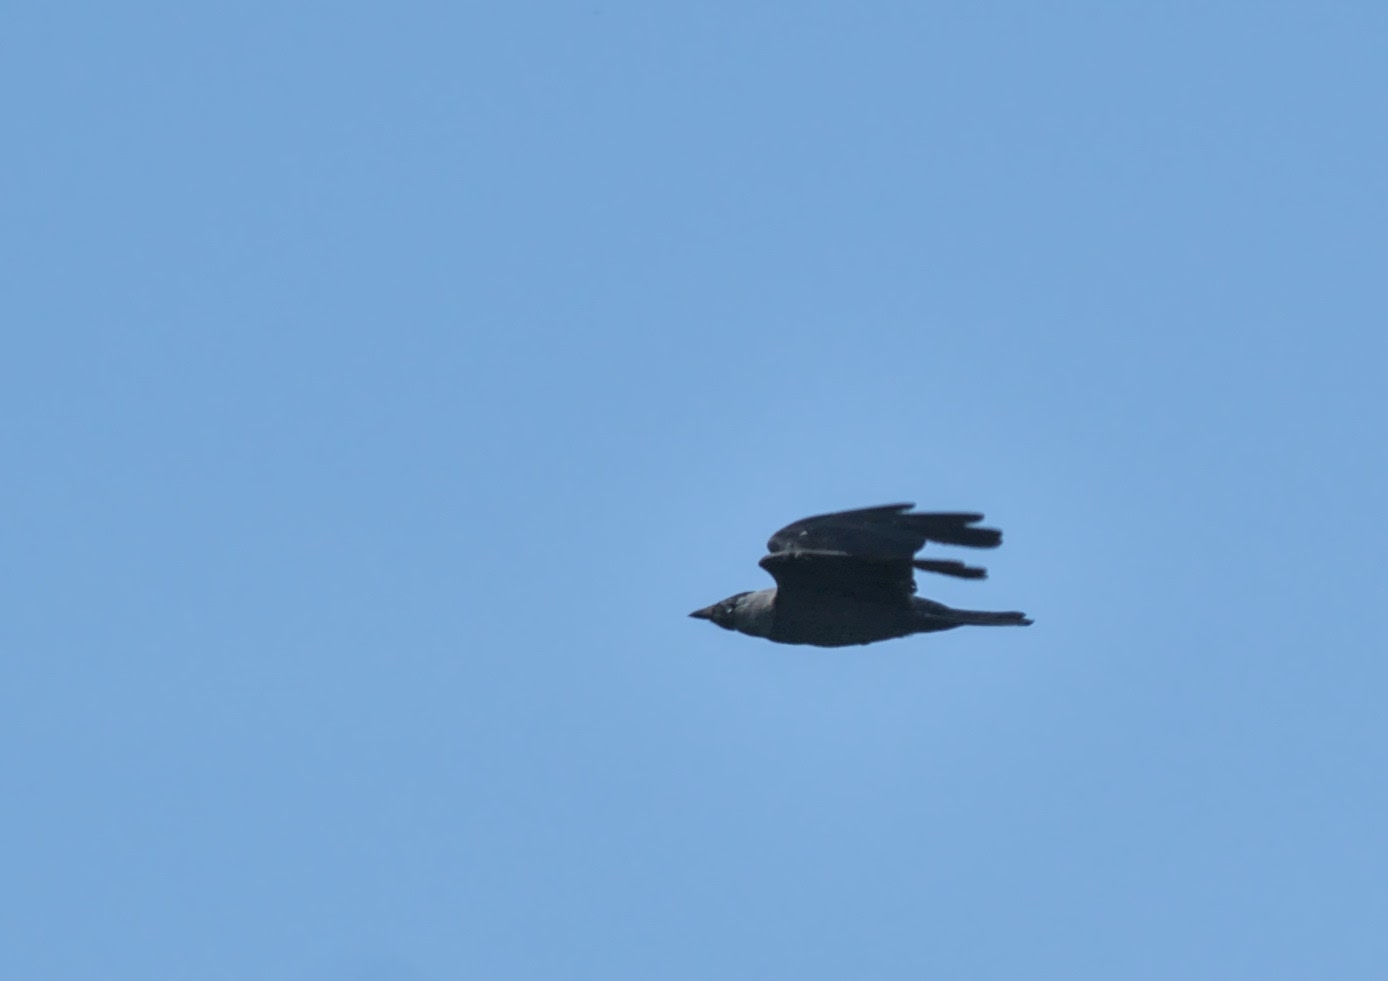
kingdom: Animalia
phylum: Chordata
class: Aves
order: Passeriformes
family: Corvidae
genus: Coloeus
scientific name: Coloeus monedula
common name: Western jackdaw
